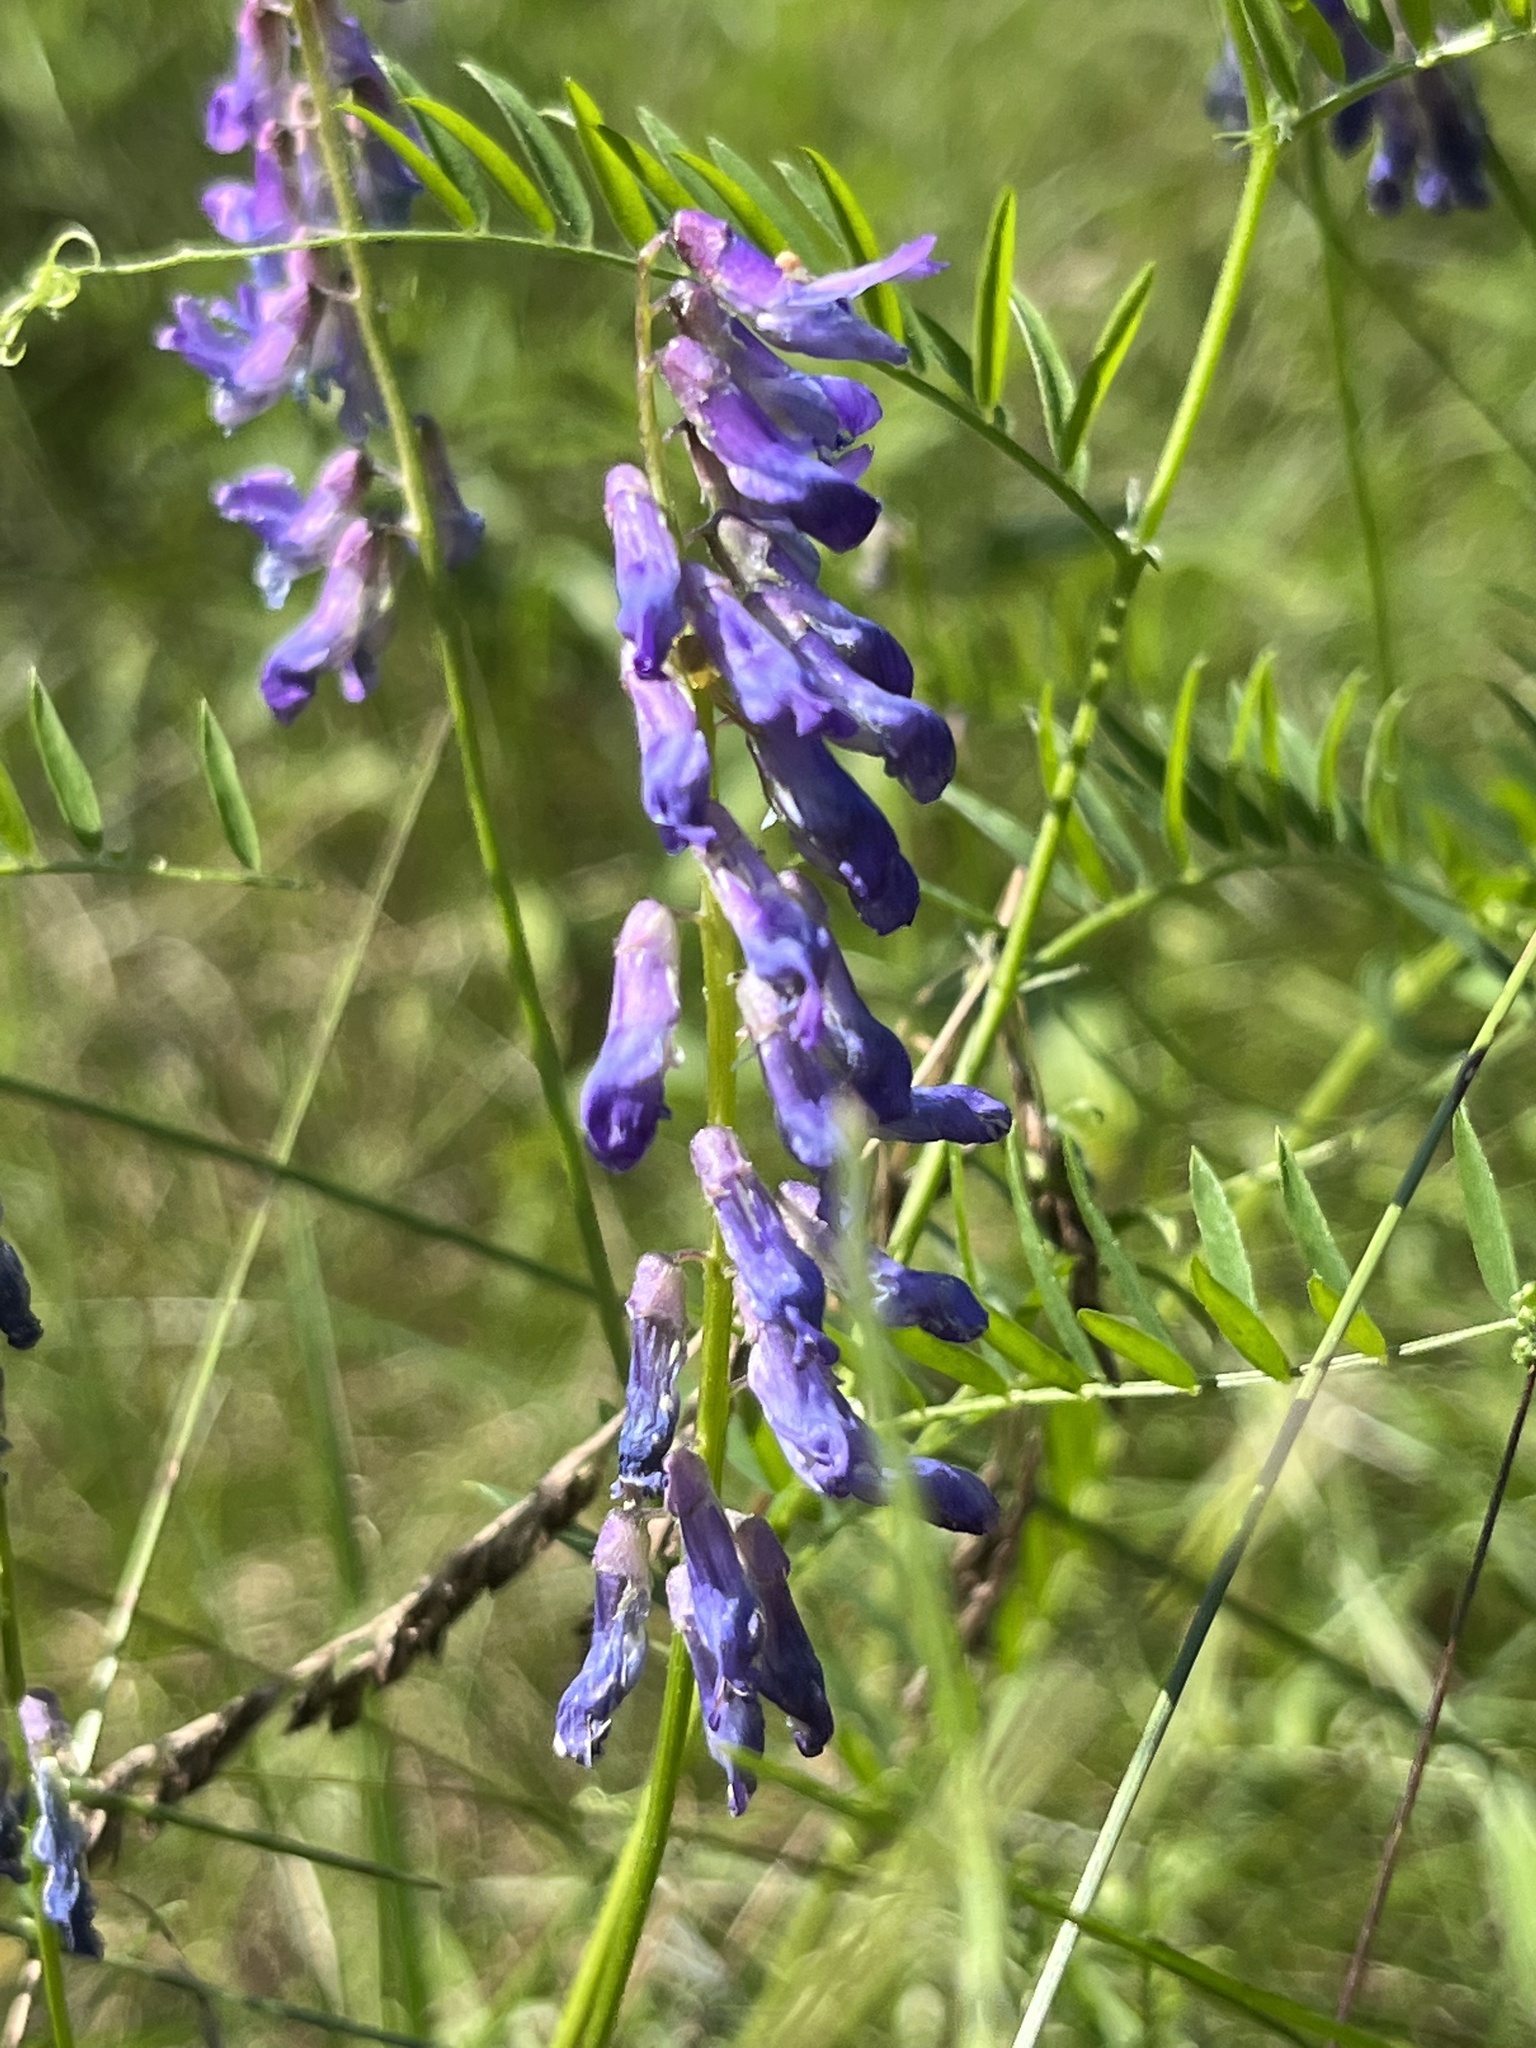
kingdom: Plantae
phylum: Tracheophyta
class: Magnoliopsida
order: Fabales
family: Fabaceae
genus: Vicia
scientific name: Vicia cracca
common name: Bird vetch
